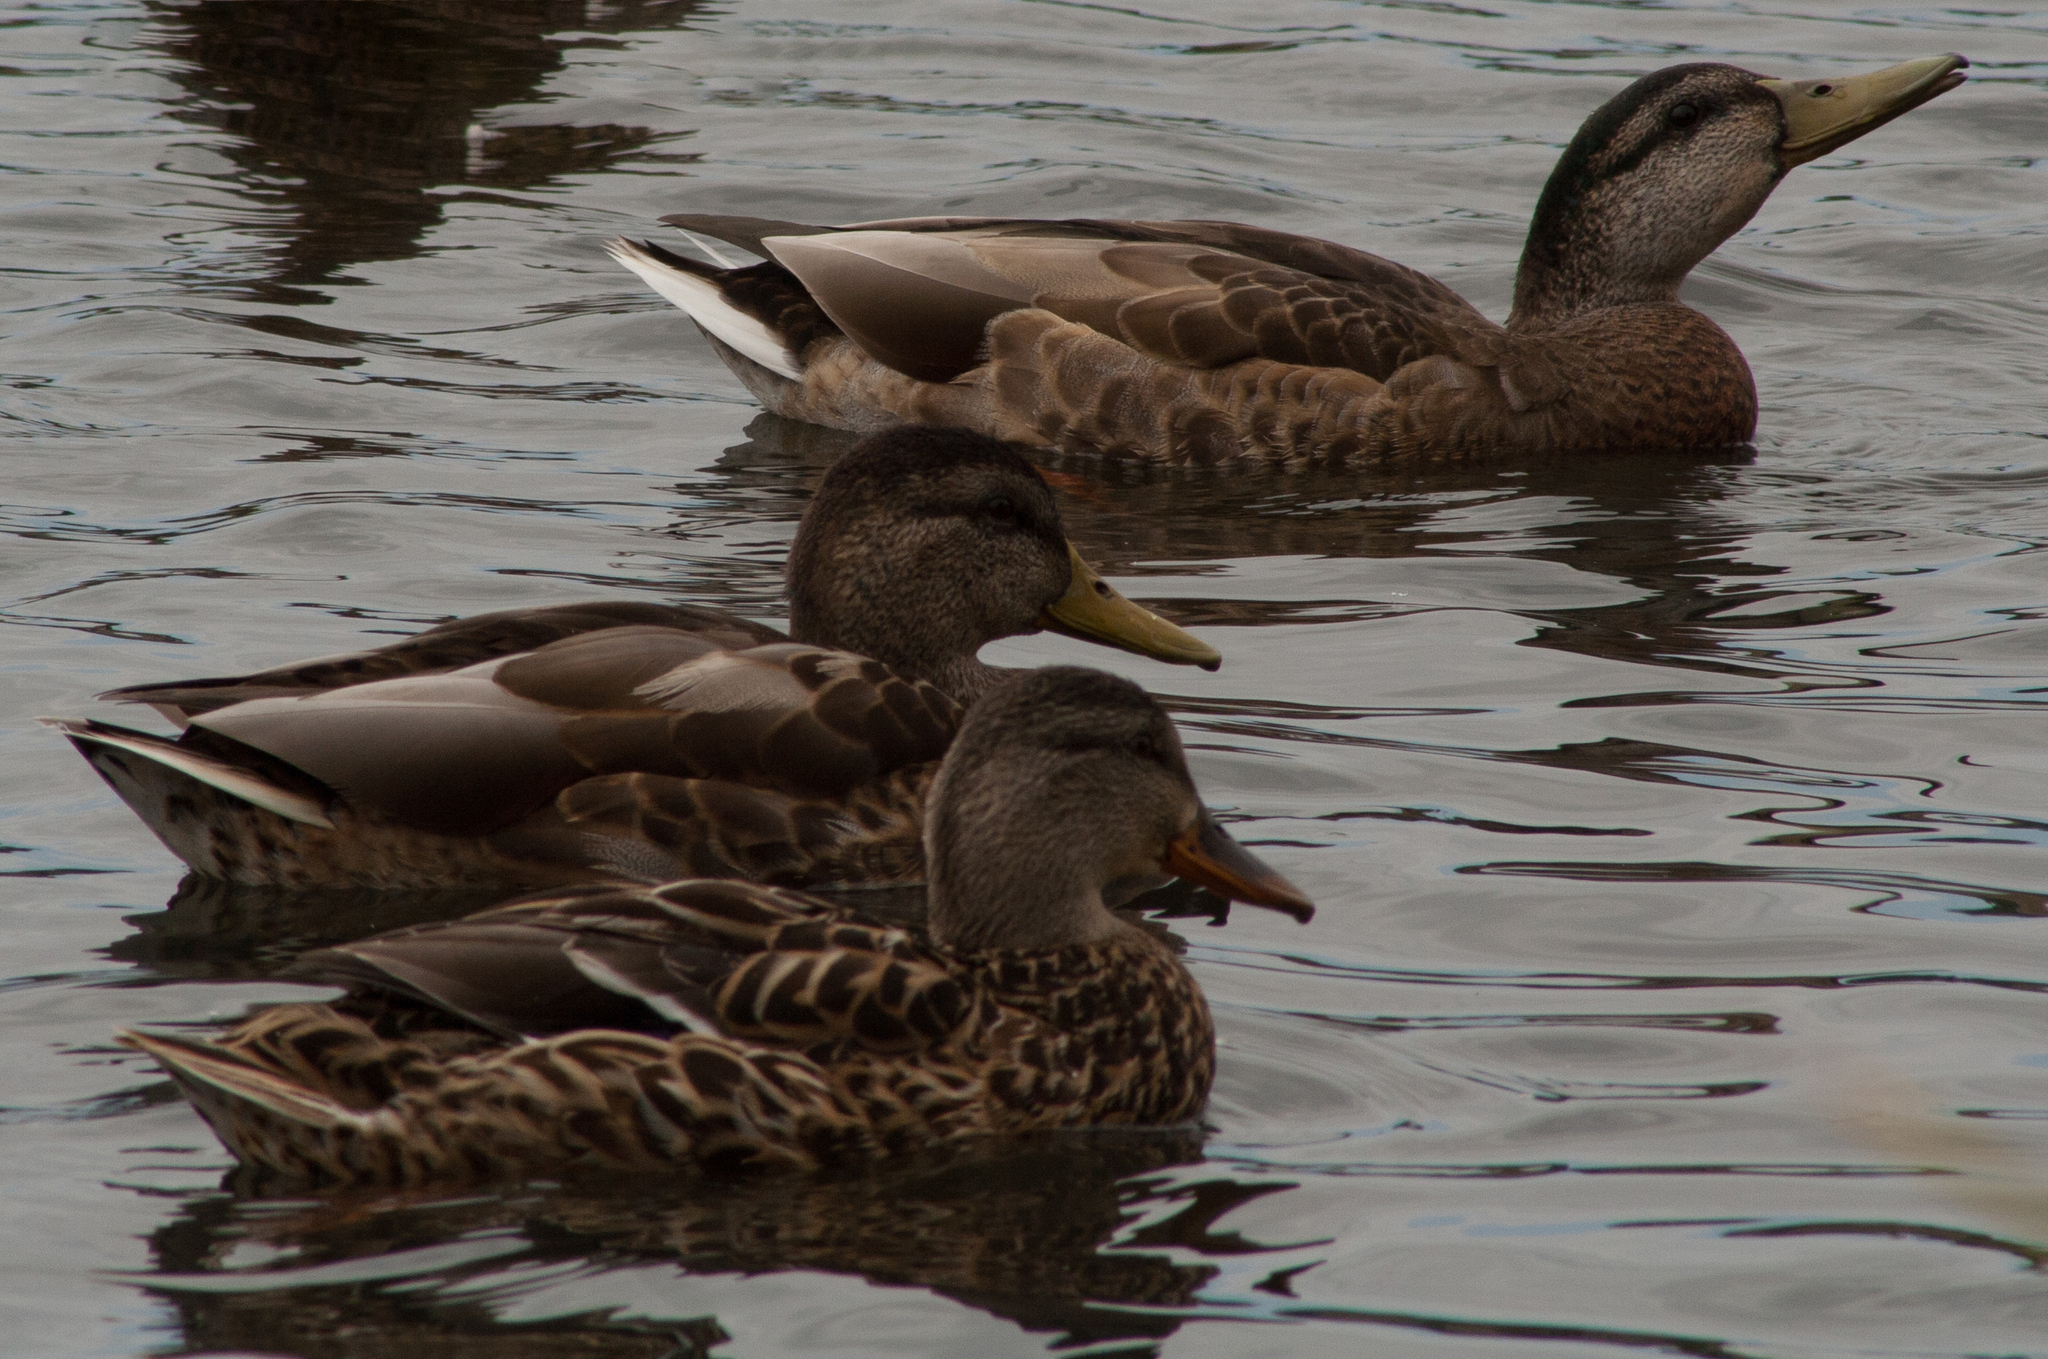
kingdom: Animalia
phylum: Chordata
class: Aves
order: Anseriformes
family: Anatidae
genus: Anas
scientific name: Anas platyrhynchos
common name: Mallard
